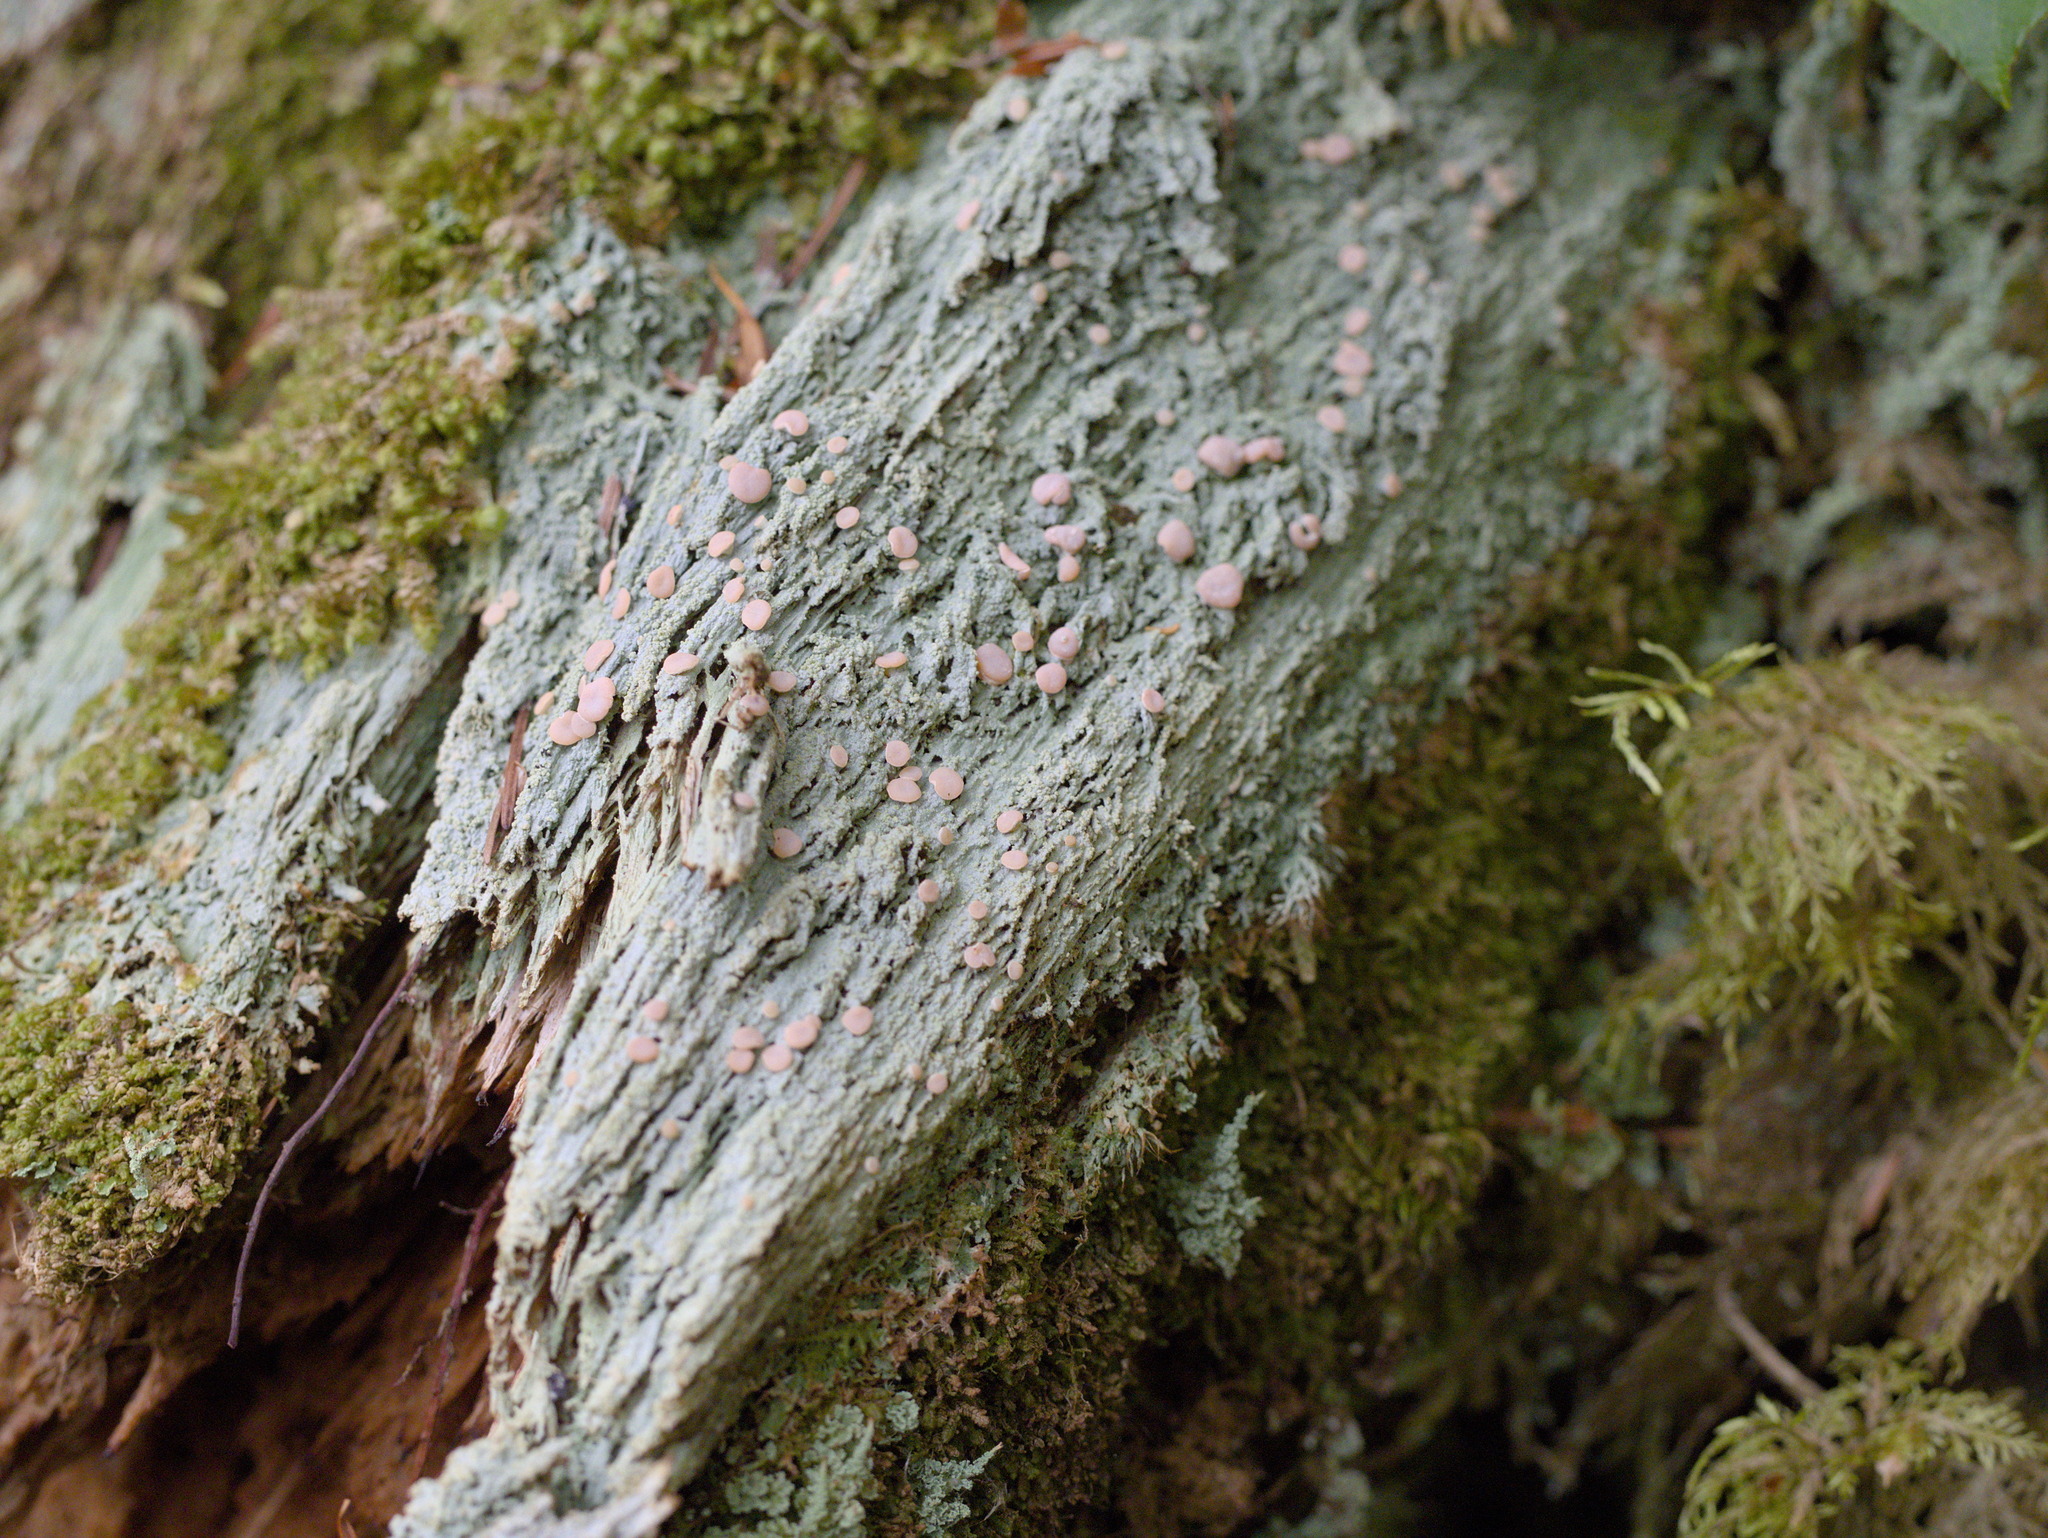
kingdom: Fungi
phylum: Ascomycota
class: Lecanoromycetes
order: Pertusariales
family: Icmadophilaceae
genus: Icmadophila
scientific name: Icmadophila ericetorum
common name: Candy lichen
